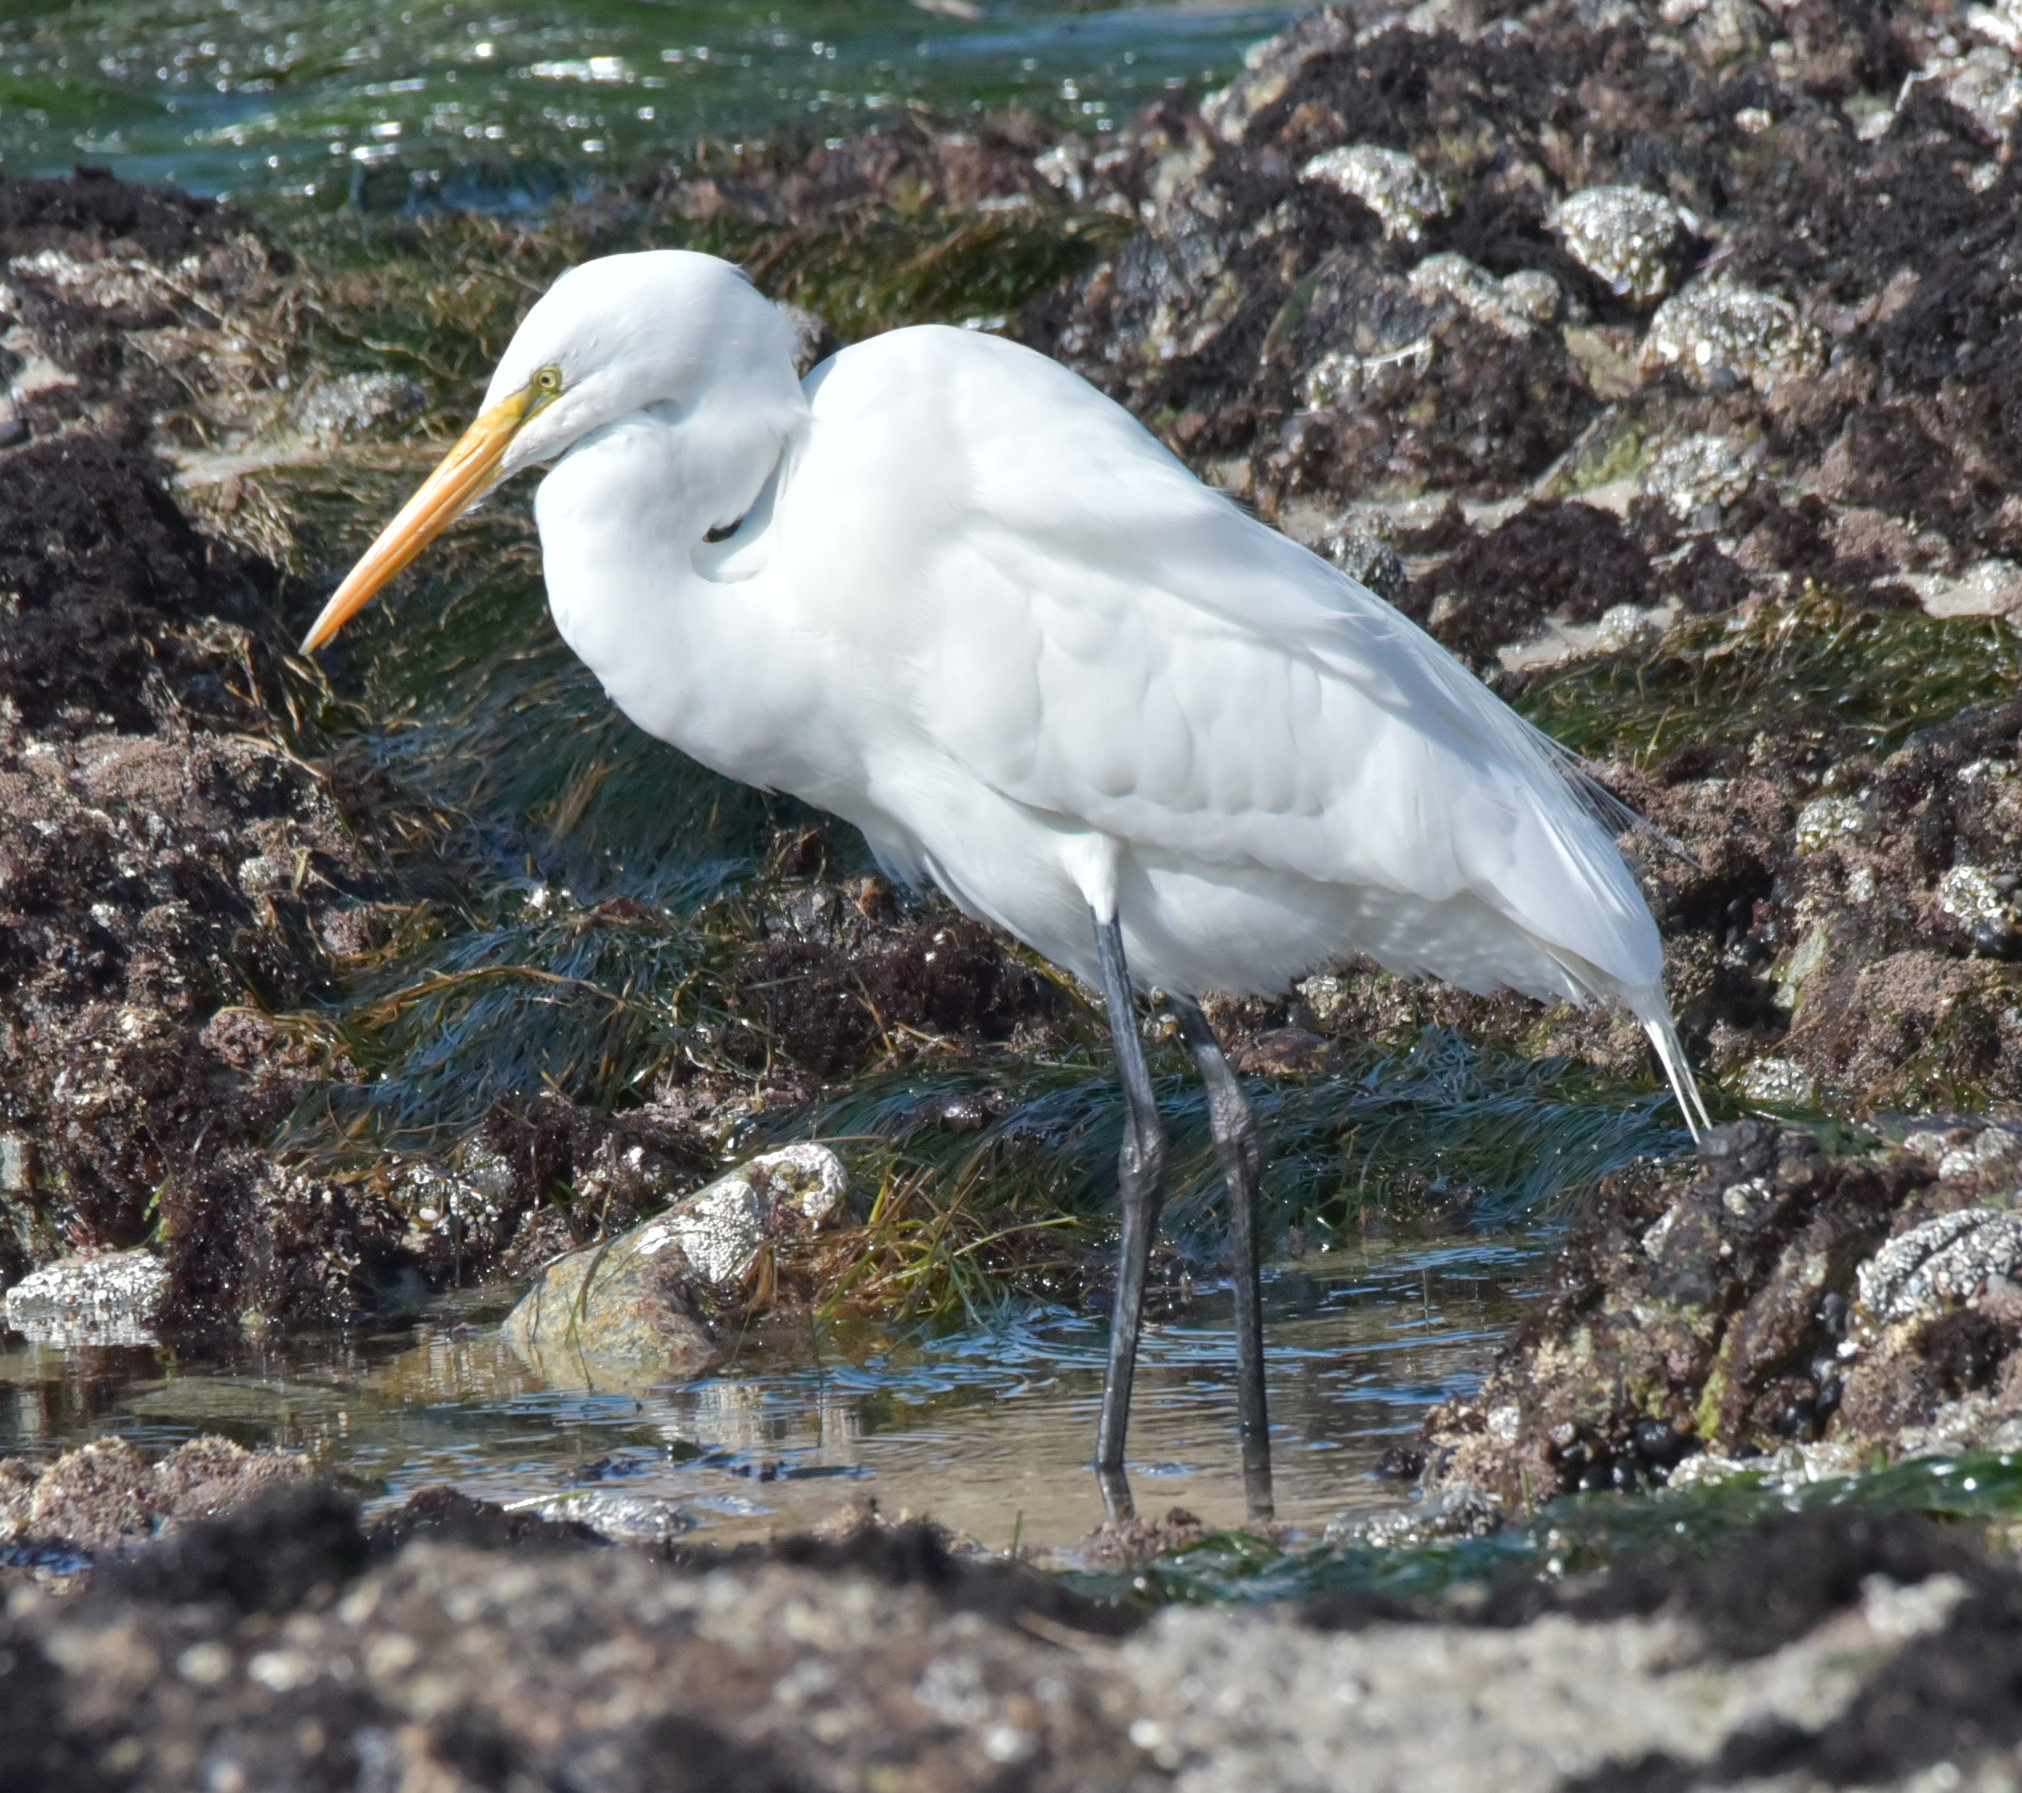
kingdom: Animalia
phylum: Chordata
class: Aves
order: Pelecaniformes
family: Ardeidae
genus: Ardea
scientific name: Ardea alba
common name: Great egret
